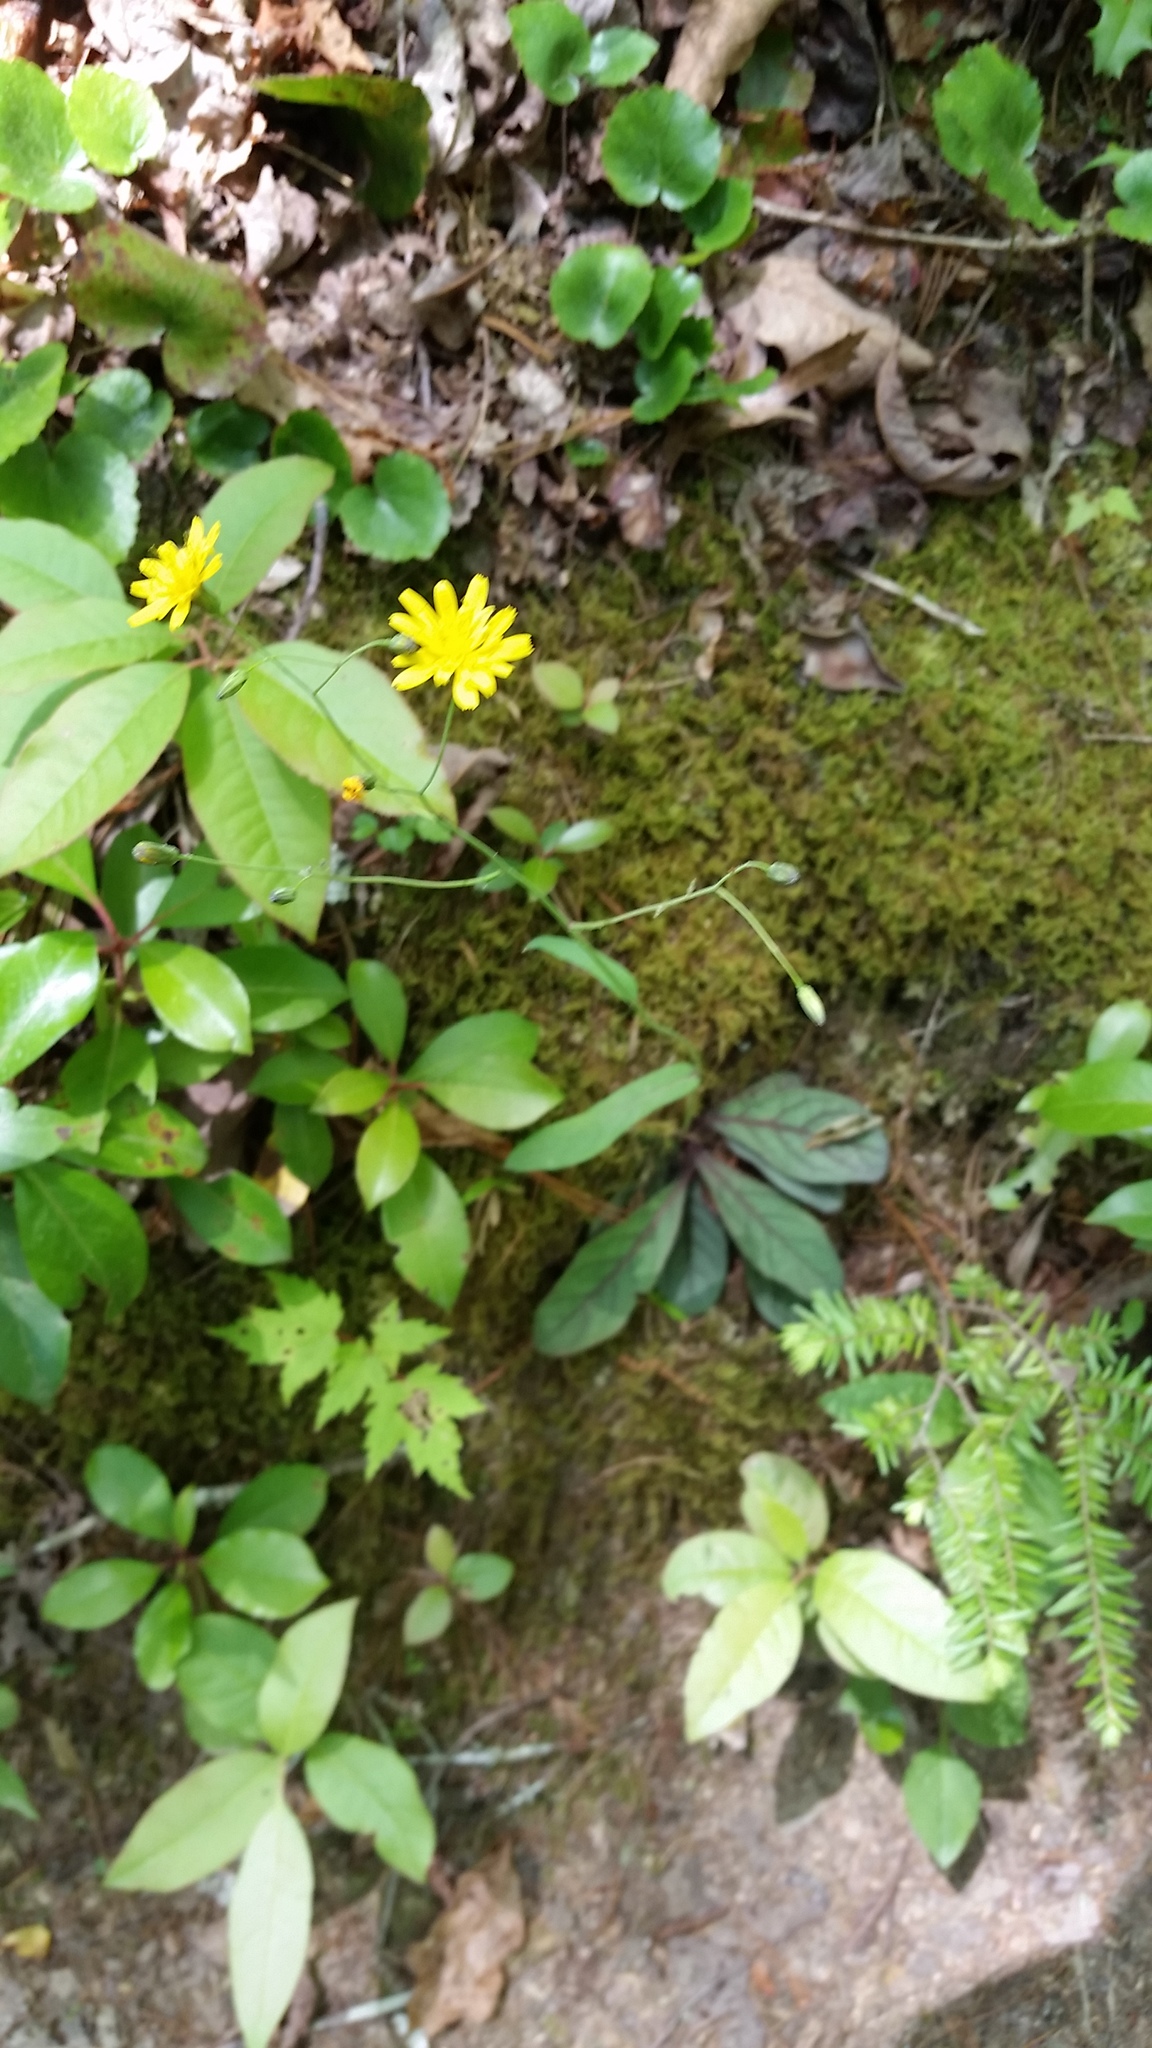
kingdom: Plantae
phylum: Tracheophyta
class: Magnoliopsida
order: Asterales
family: Asteraceae
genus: Hieracium
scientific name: Hieracium venosum
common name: Rattlesnake hawkweed
